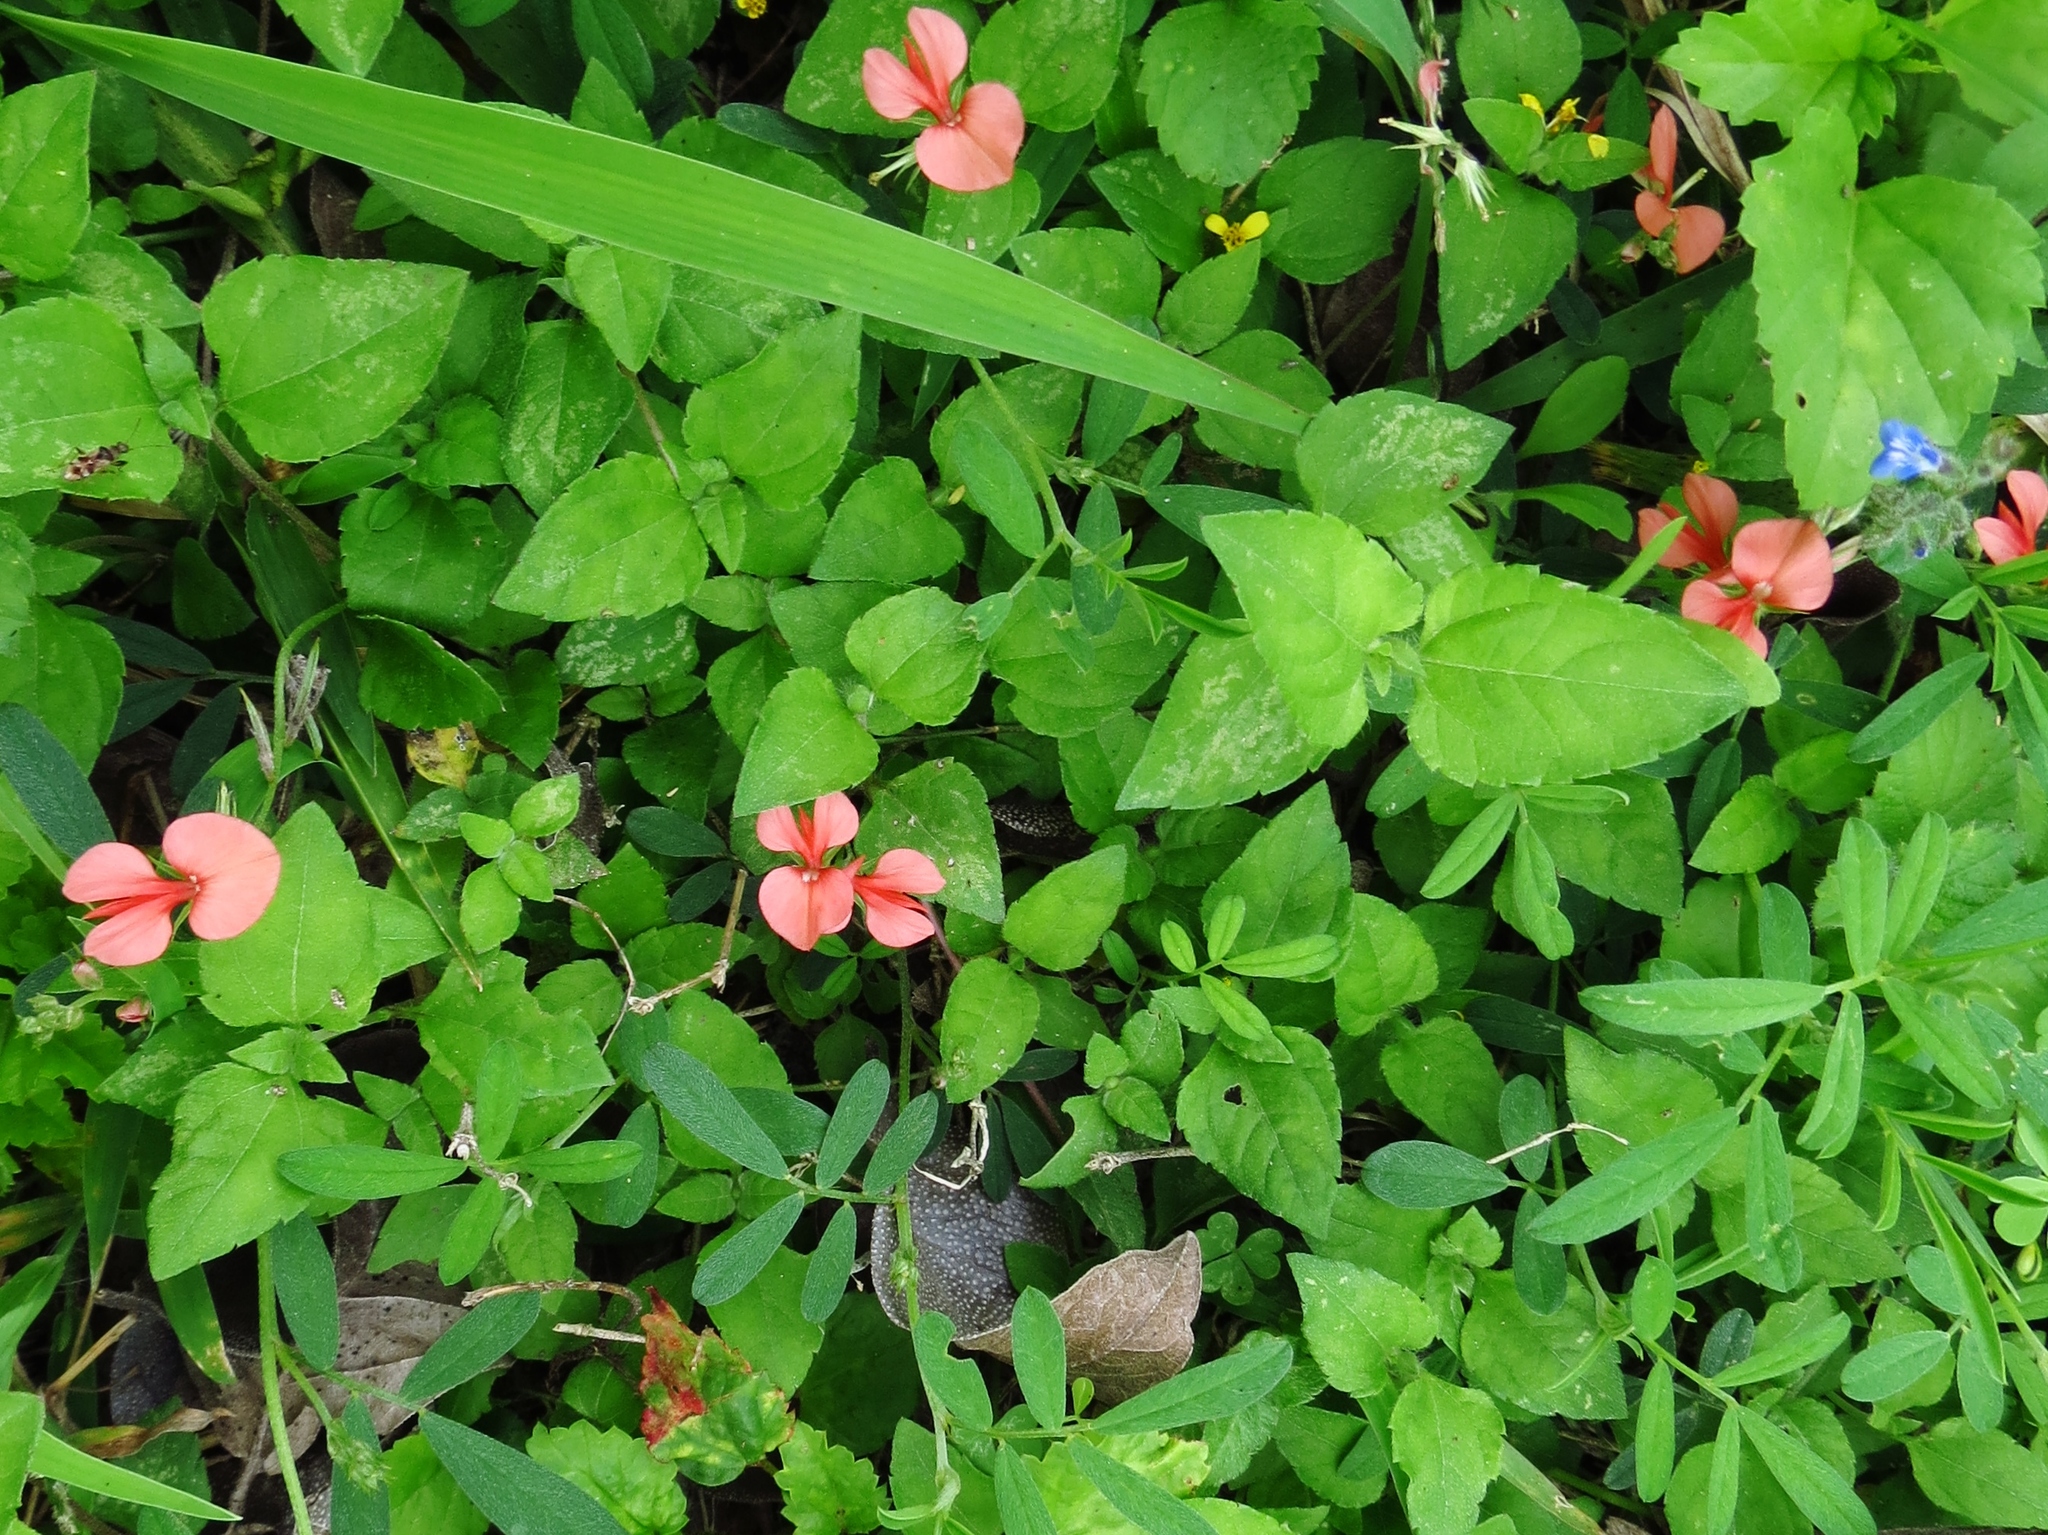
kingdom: Plantae
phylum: Tracheophyta
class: Magnoliopsida
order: Fabales
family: Fabaceae
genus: Indigofera
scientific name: Indigofera miniata
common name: Coast indigo
